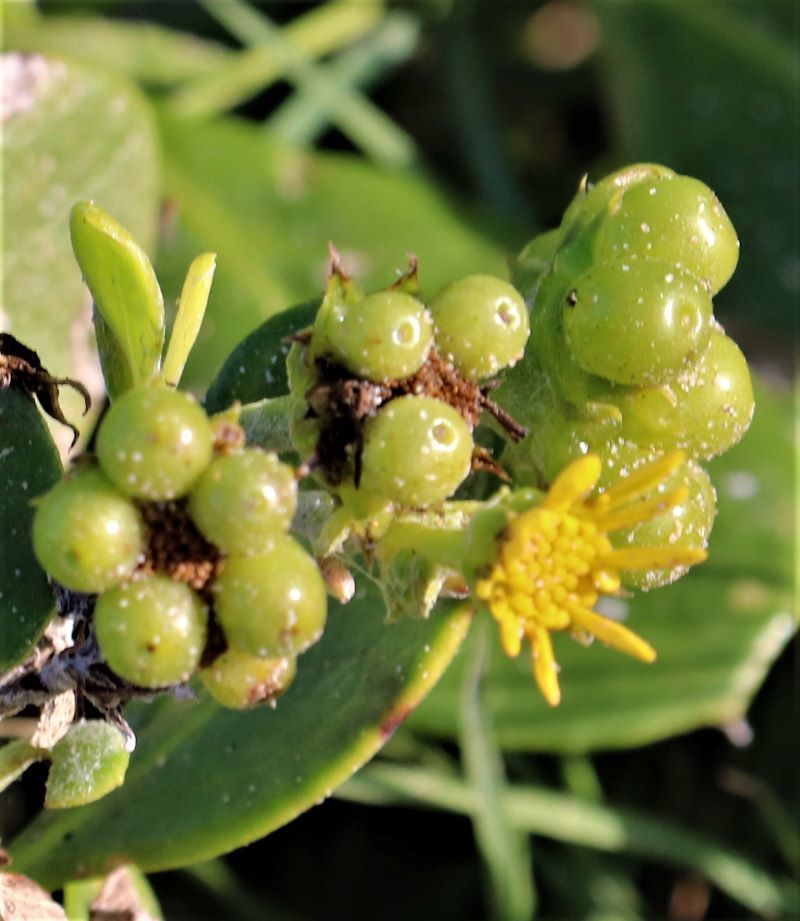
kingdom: Plantae
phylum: Tracheophyta
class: Magnoliopsida
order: Asterales
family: Asteraceae
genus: Osteospermum
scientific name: Osteospermum moniliferum
